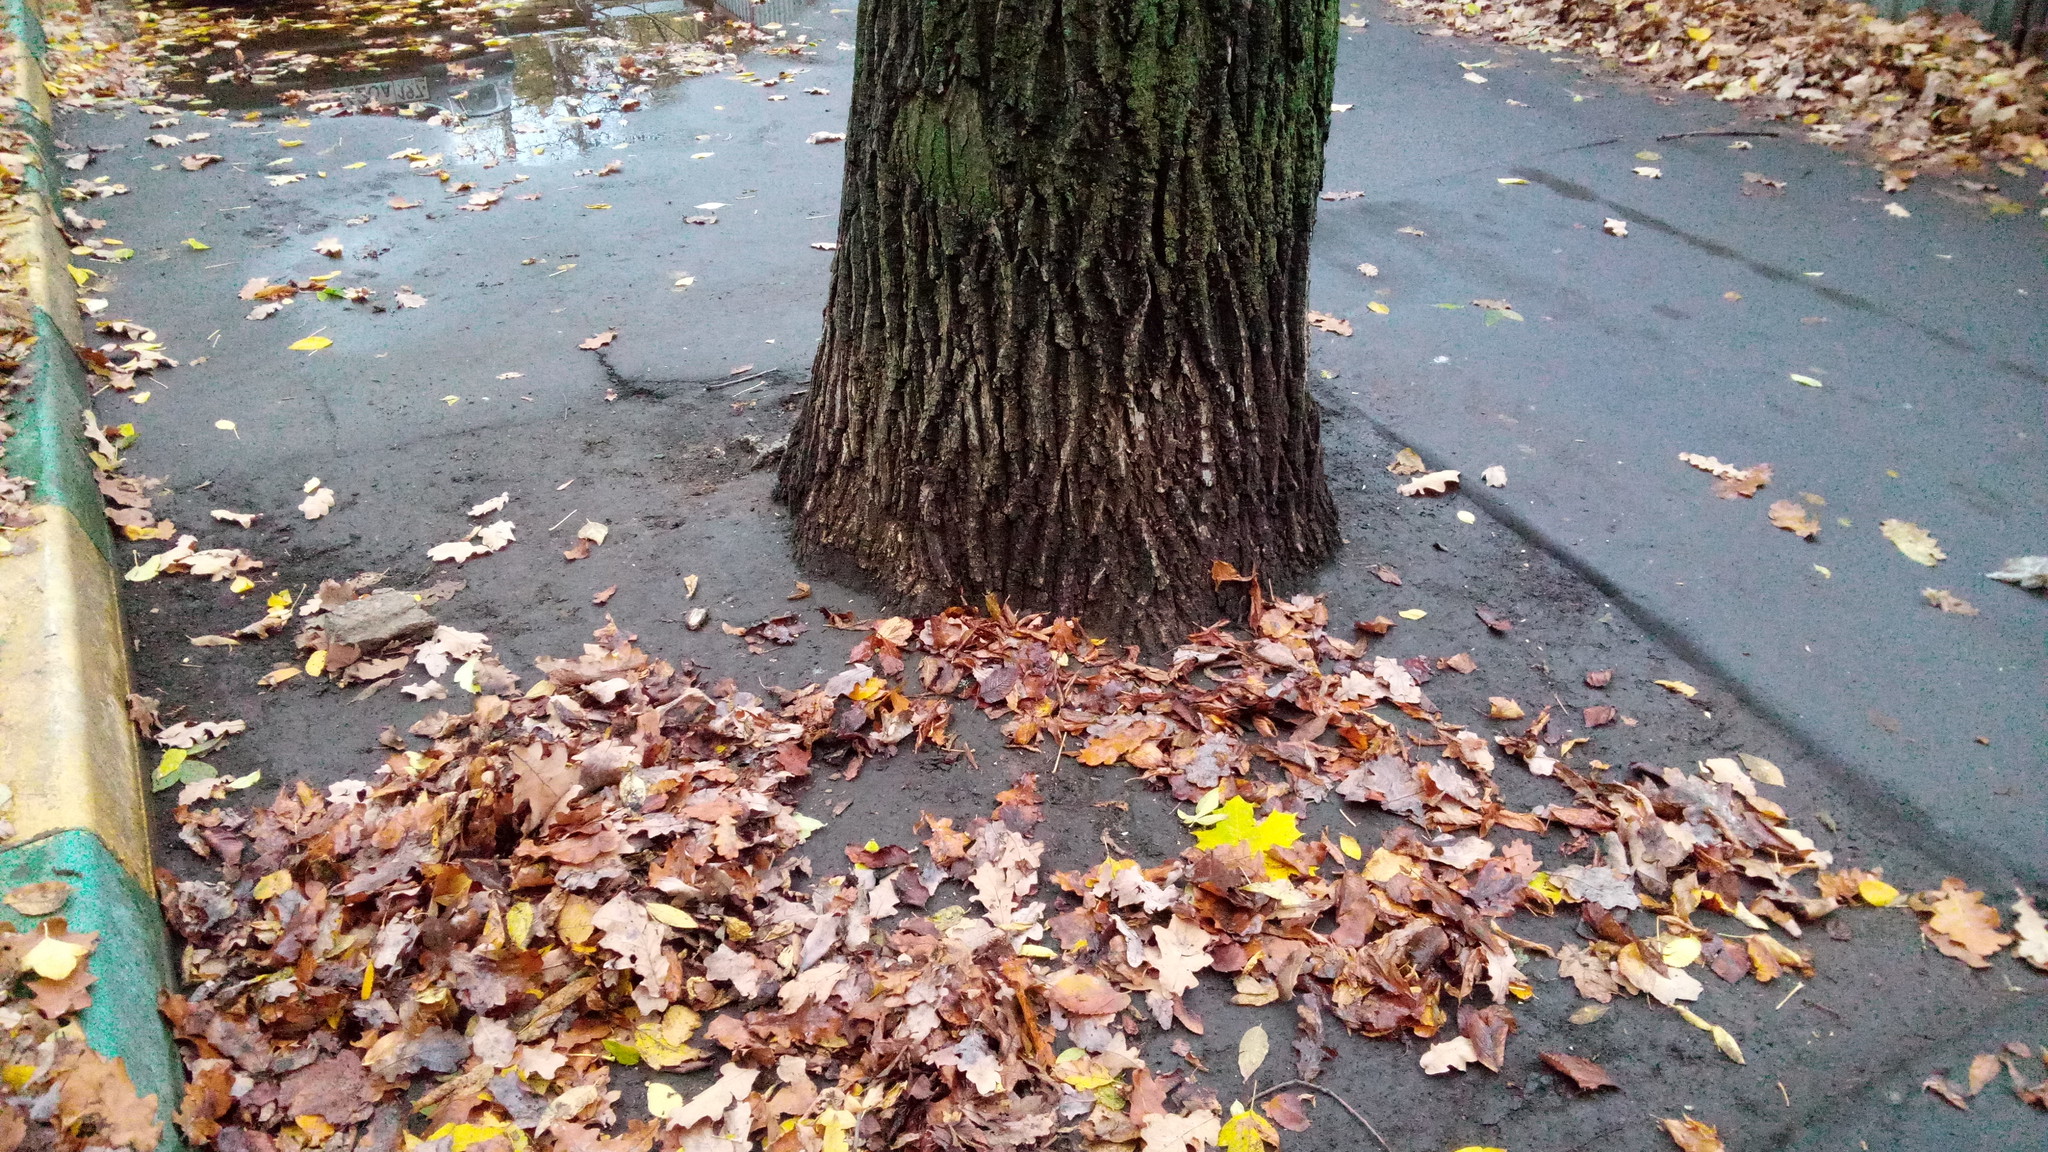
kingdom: Plantae
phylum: Tracheophyta
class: Magnoliopsida
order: Fagales
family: Fagaceae
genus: Quercus
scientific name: Quercus robur
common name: Pedunculate oak
